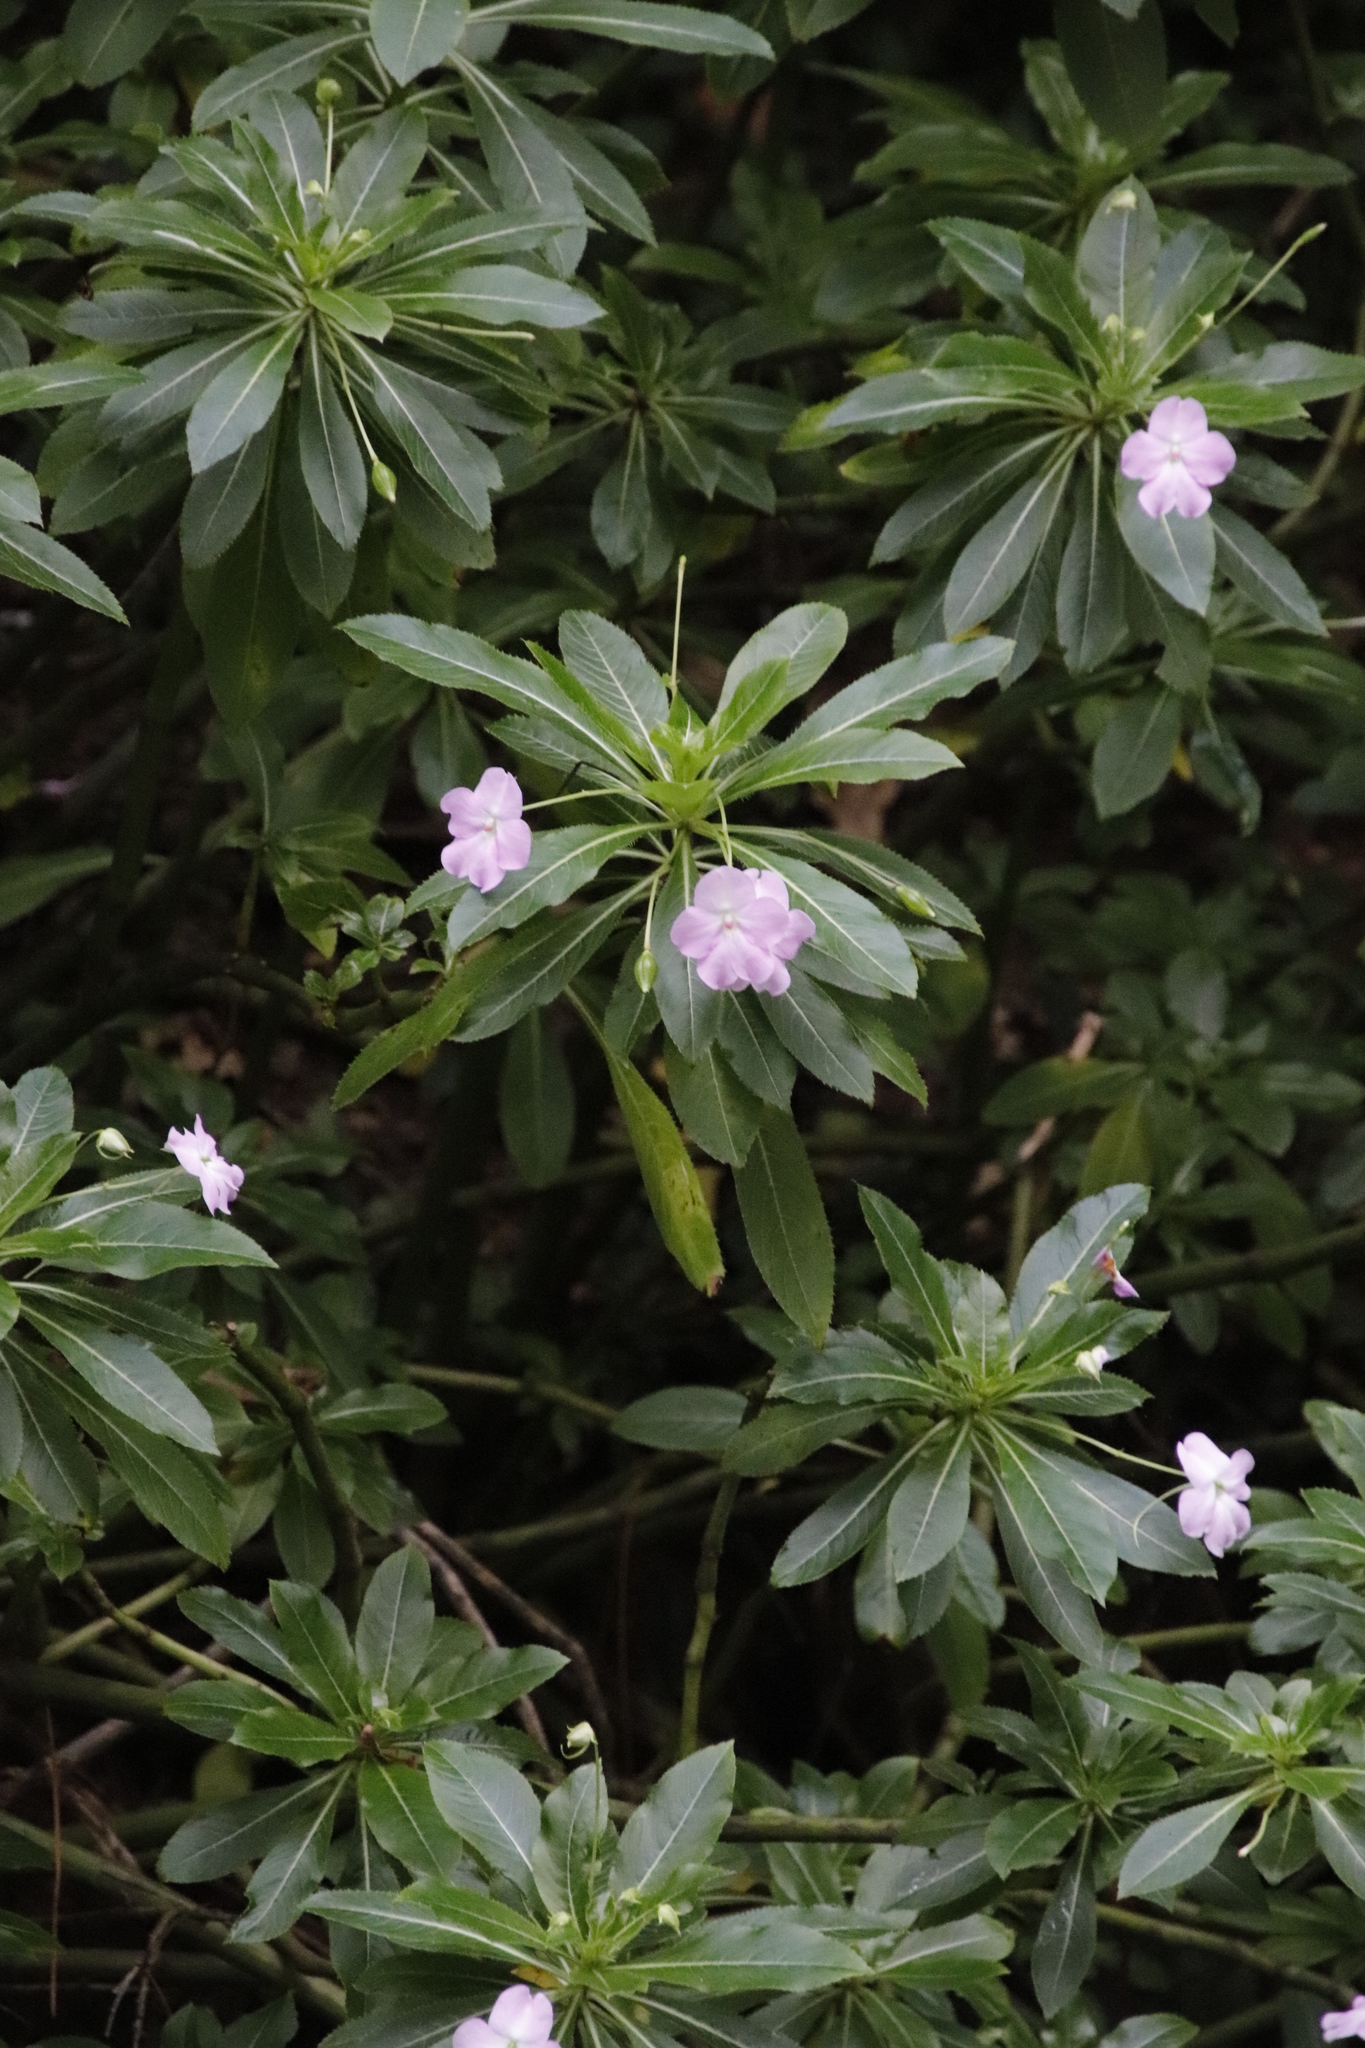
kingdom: Plantae
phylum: Tracheophyta
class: Magnoliopsida
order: Ericales
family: Balsaminaceae
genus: Impatiens
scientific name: Impatiens sodenii
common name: Oliver's touch-me-not
